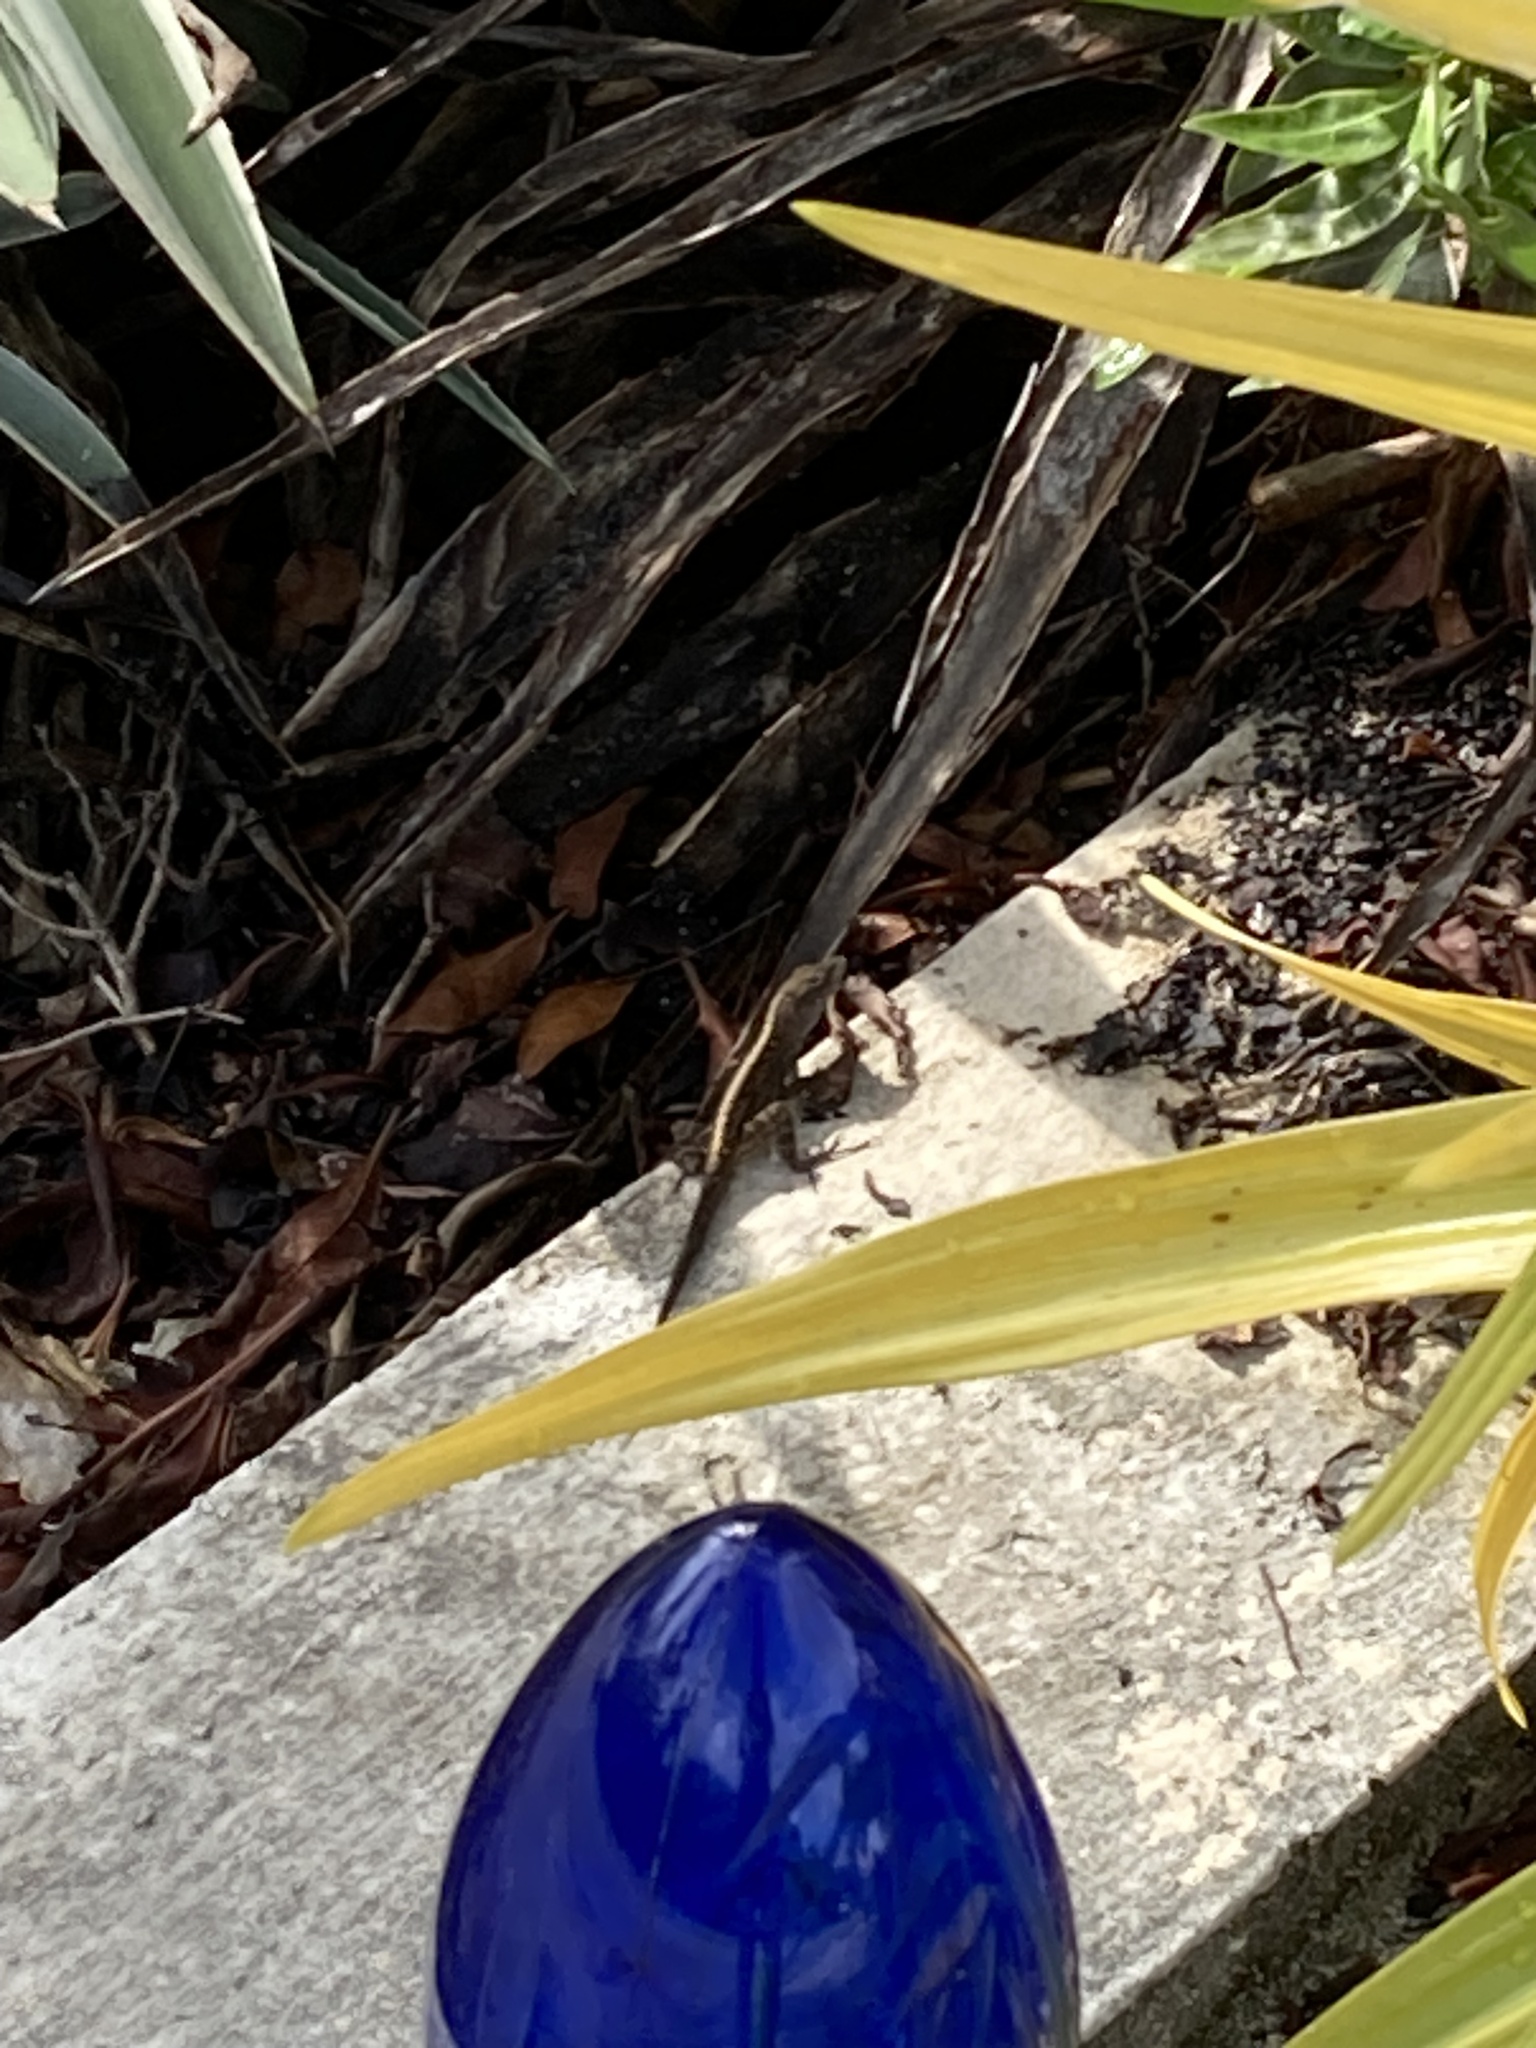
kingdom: Animalia
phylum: Chordata
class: Squamata
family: Dactyloidae
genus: Anolis
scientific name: Anolis sagrei
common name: Brown anole
